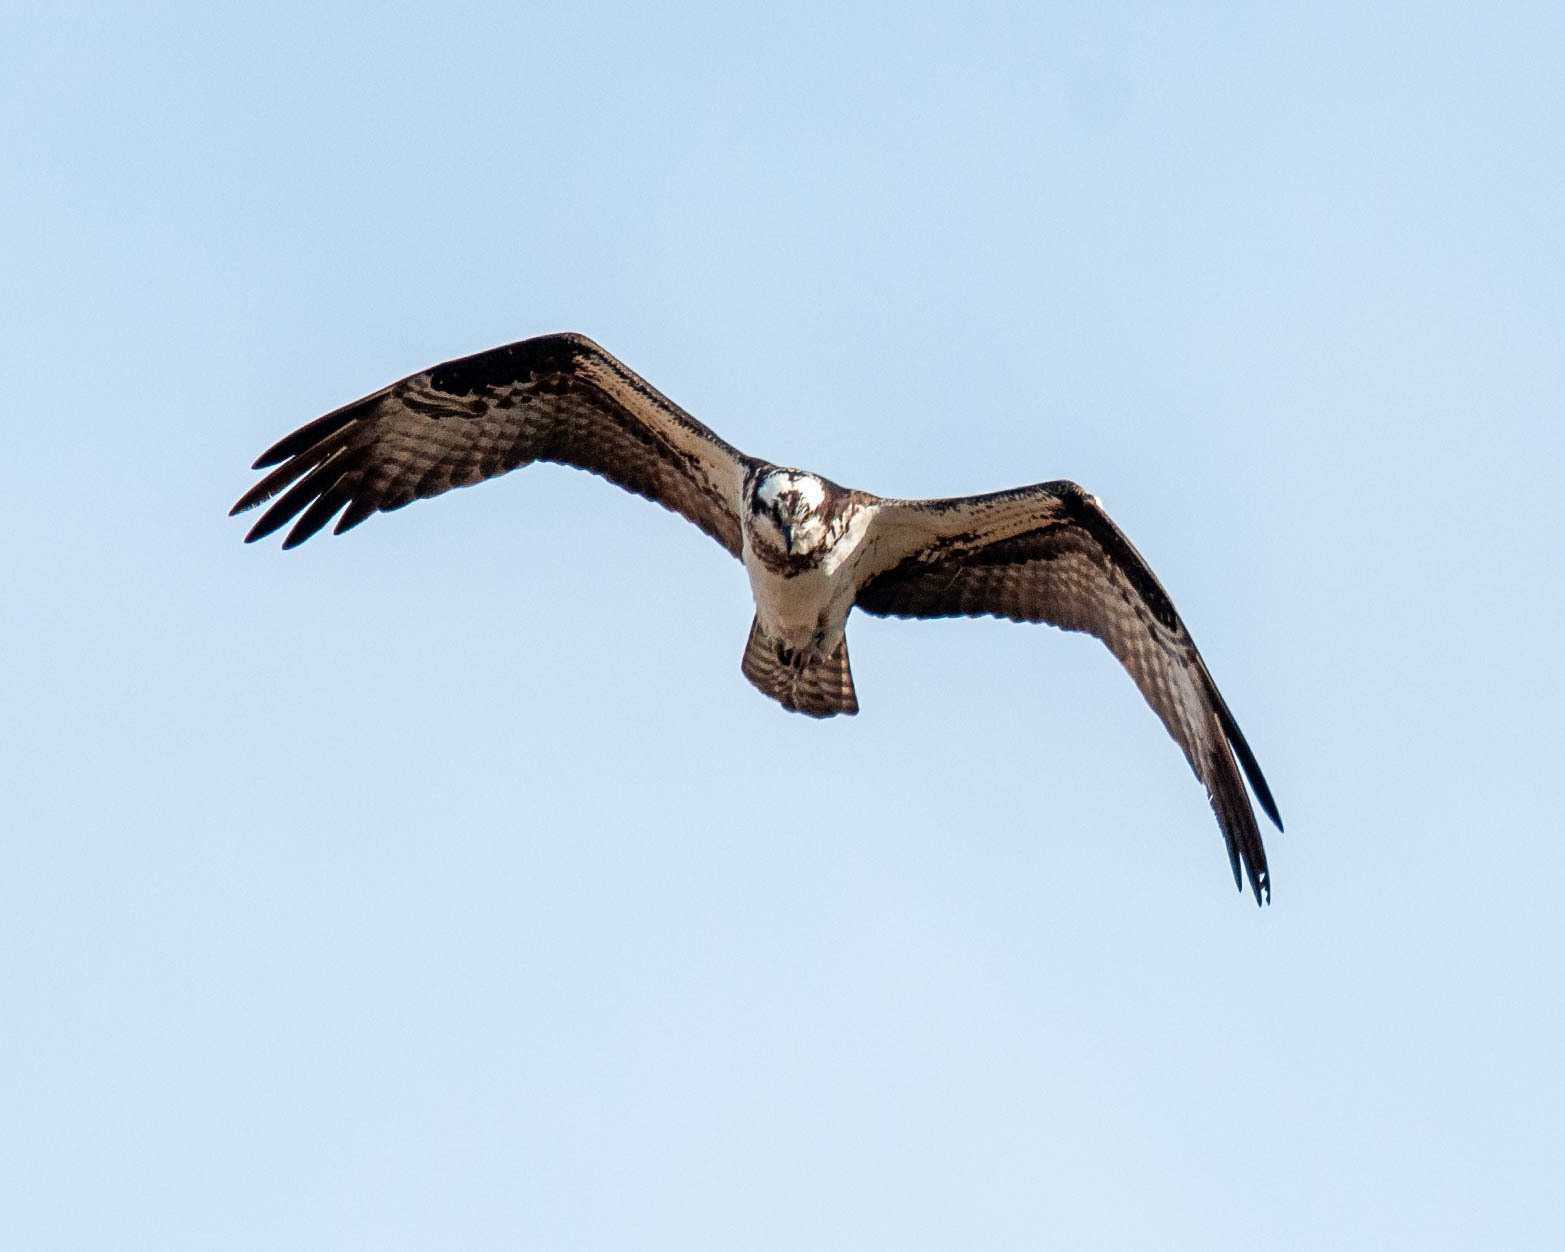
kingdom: Animalia
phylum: Chordata
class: Aves
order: Accipitriformes
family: Pandionidae
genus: Pandion
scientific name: Pandion haliaetus
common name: Osprey
